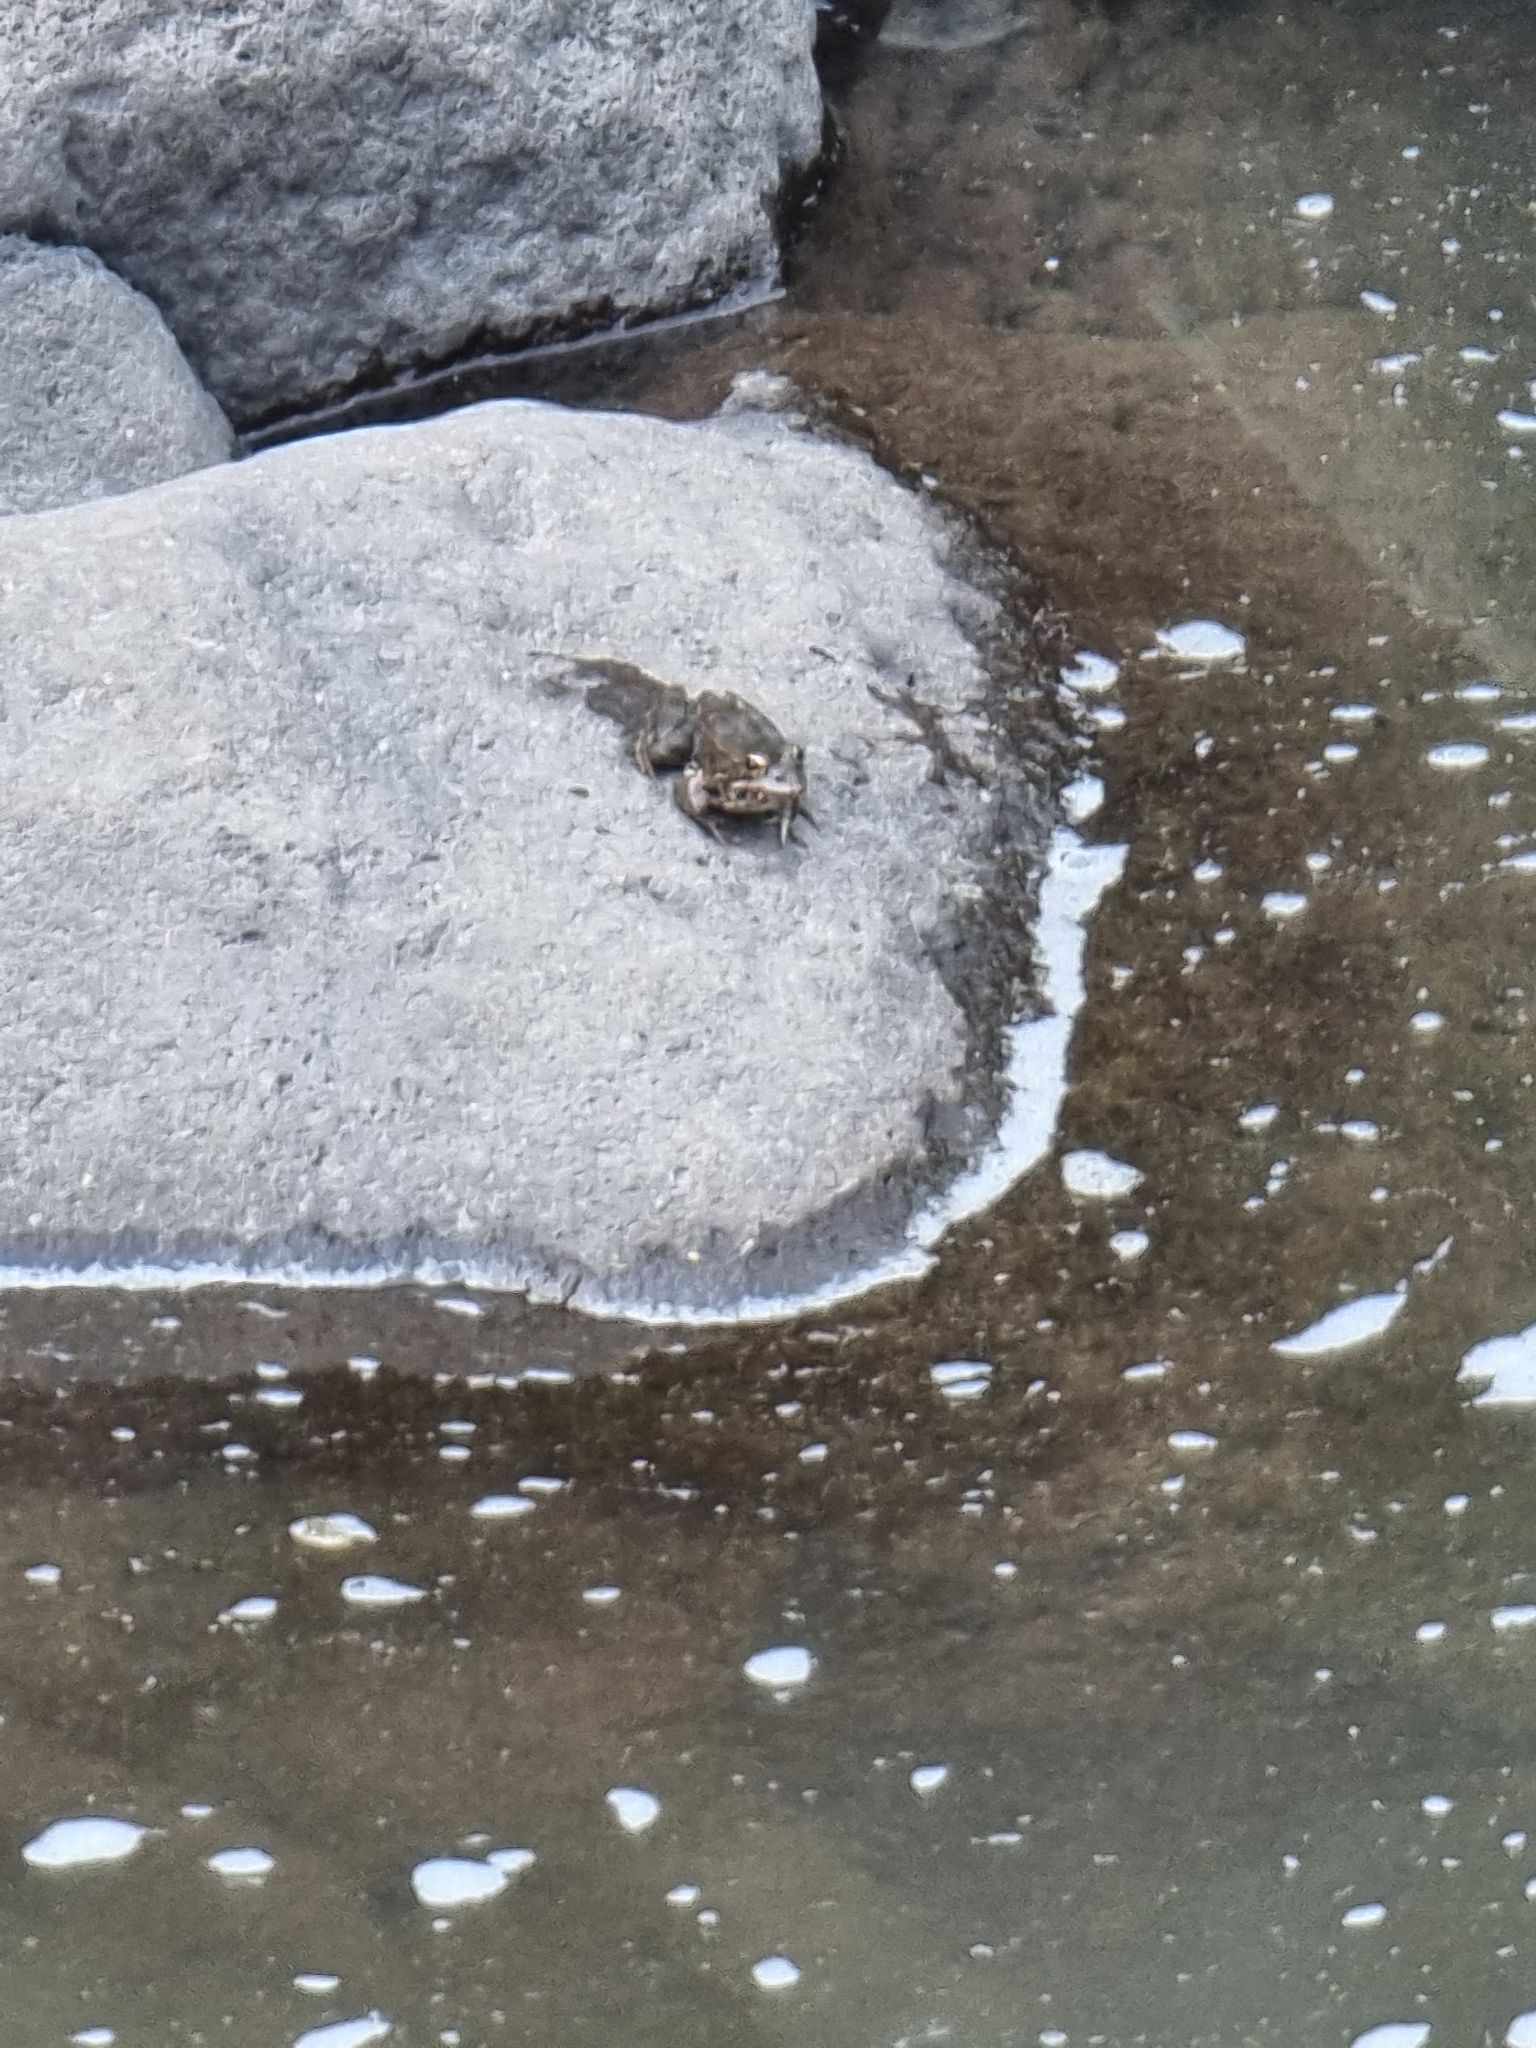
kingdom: Animalia
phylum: Chordata
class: Amphibia
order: Anura
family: Ranidae
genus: Pelophylax
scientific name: Pelophylax perezi
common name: Perez's frog
